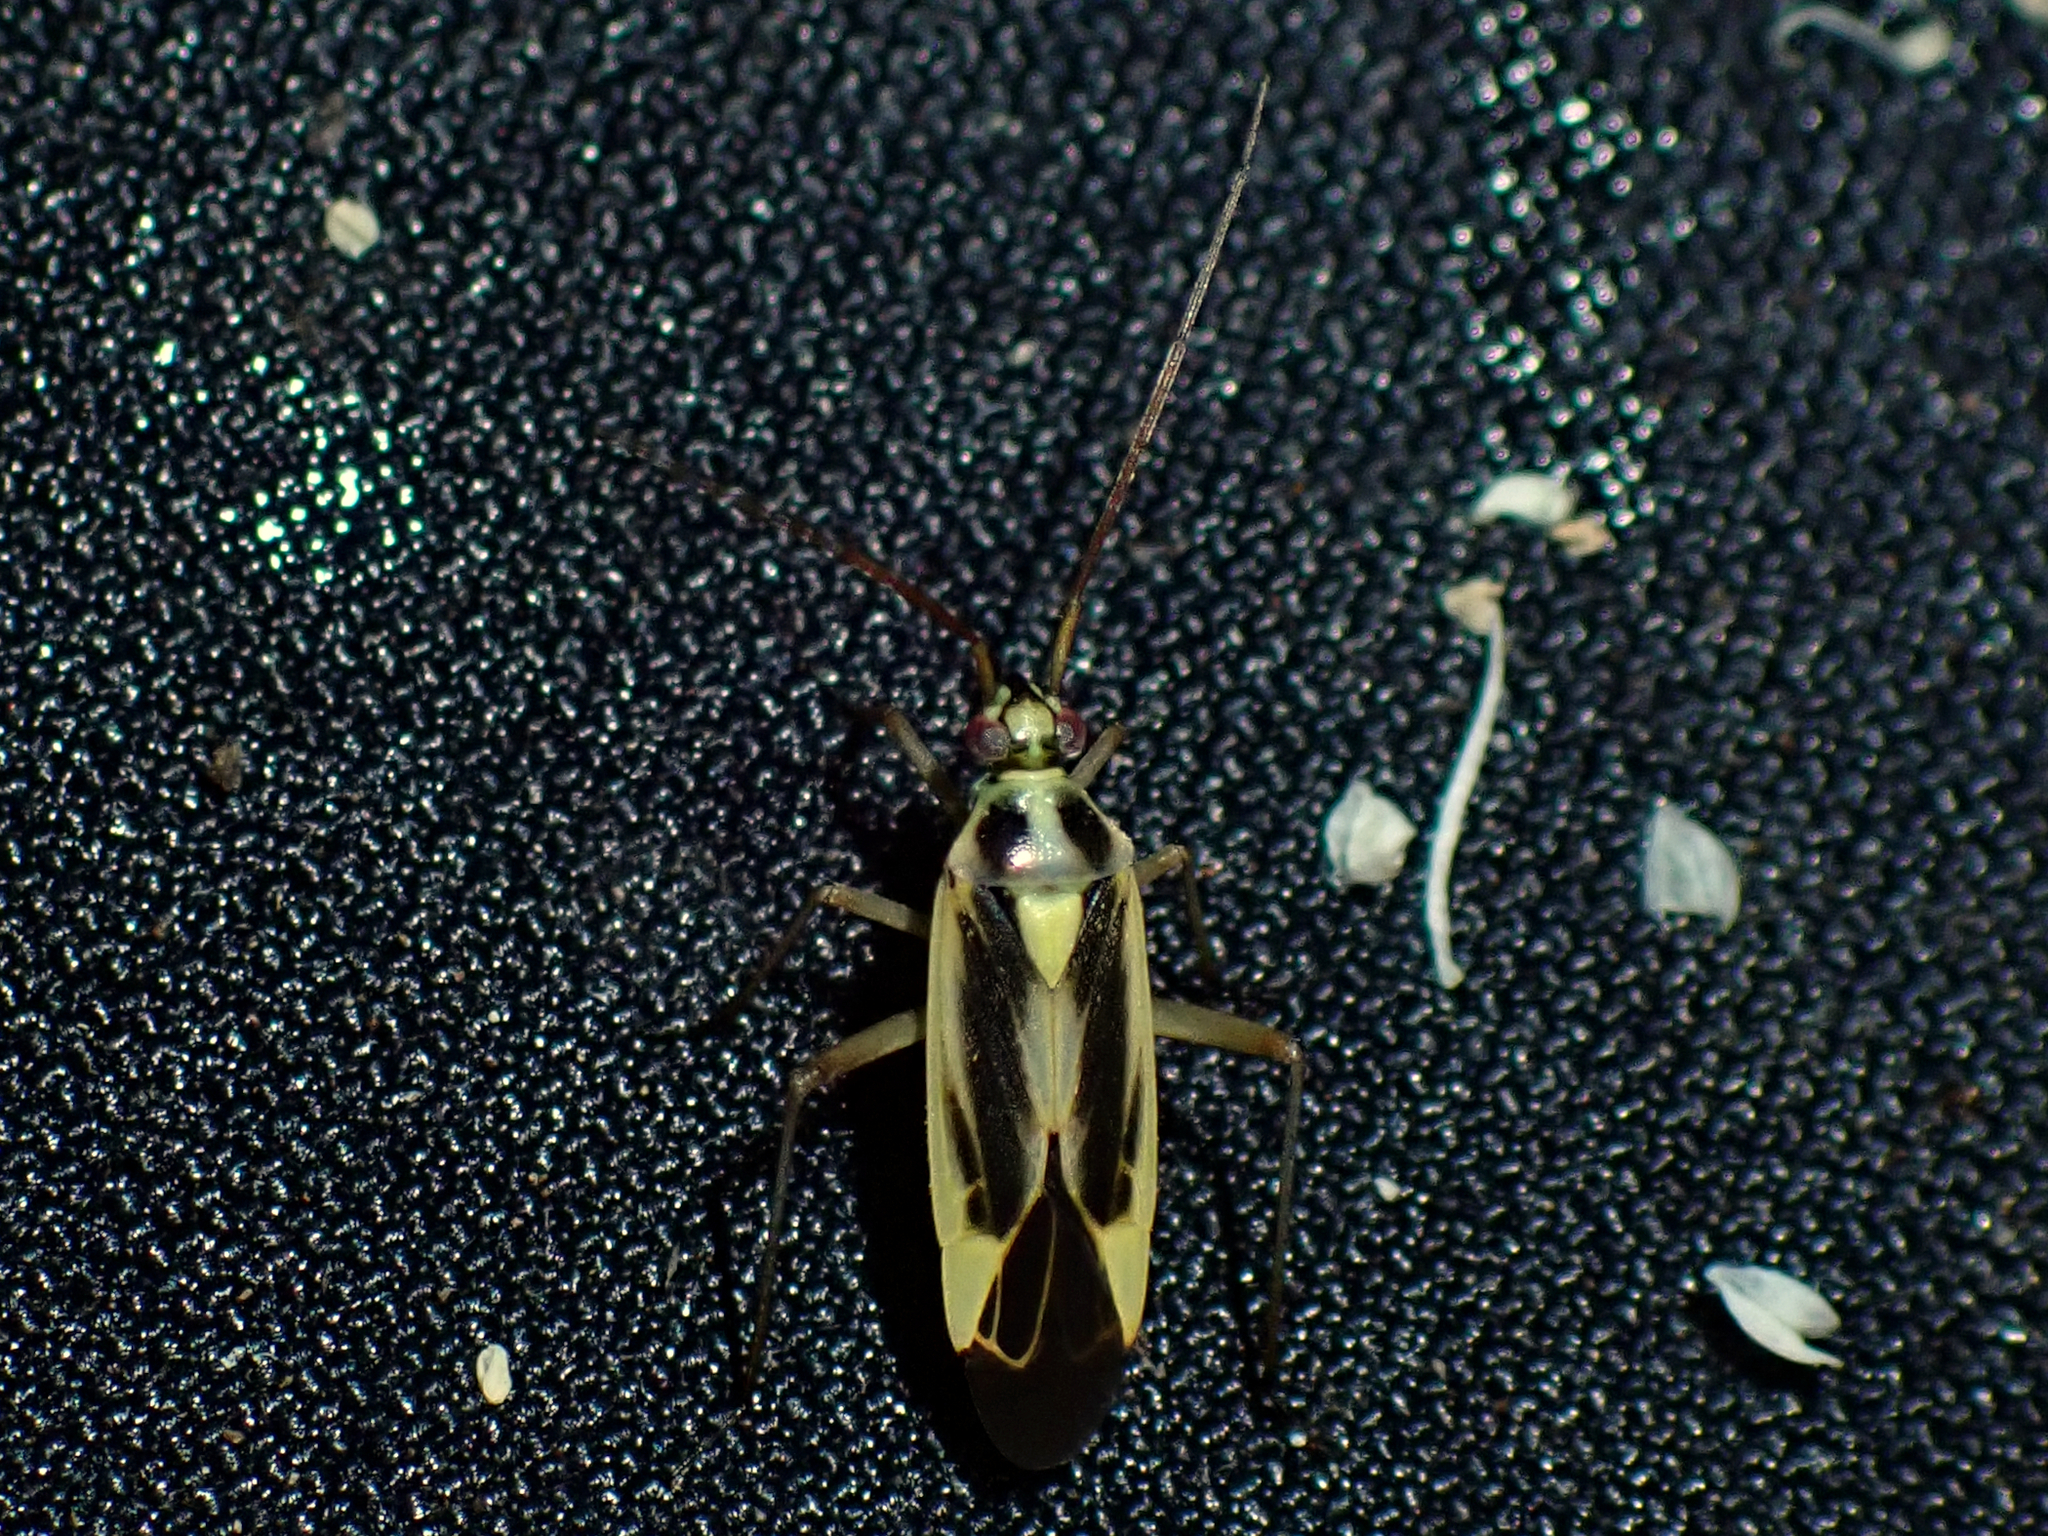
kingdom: Animalia
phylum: Arthropoda
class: Insecta
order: Hemiptera
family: Miridae
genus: Stenotus
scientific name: Stenotus binotatus
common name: Plant bug
